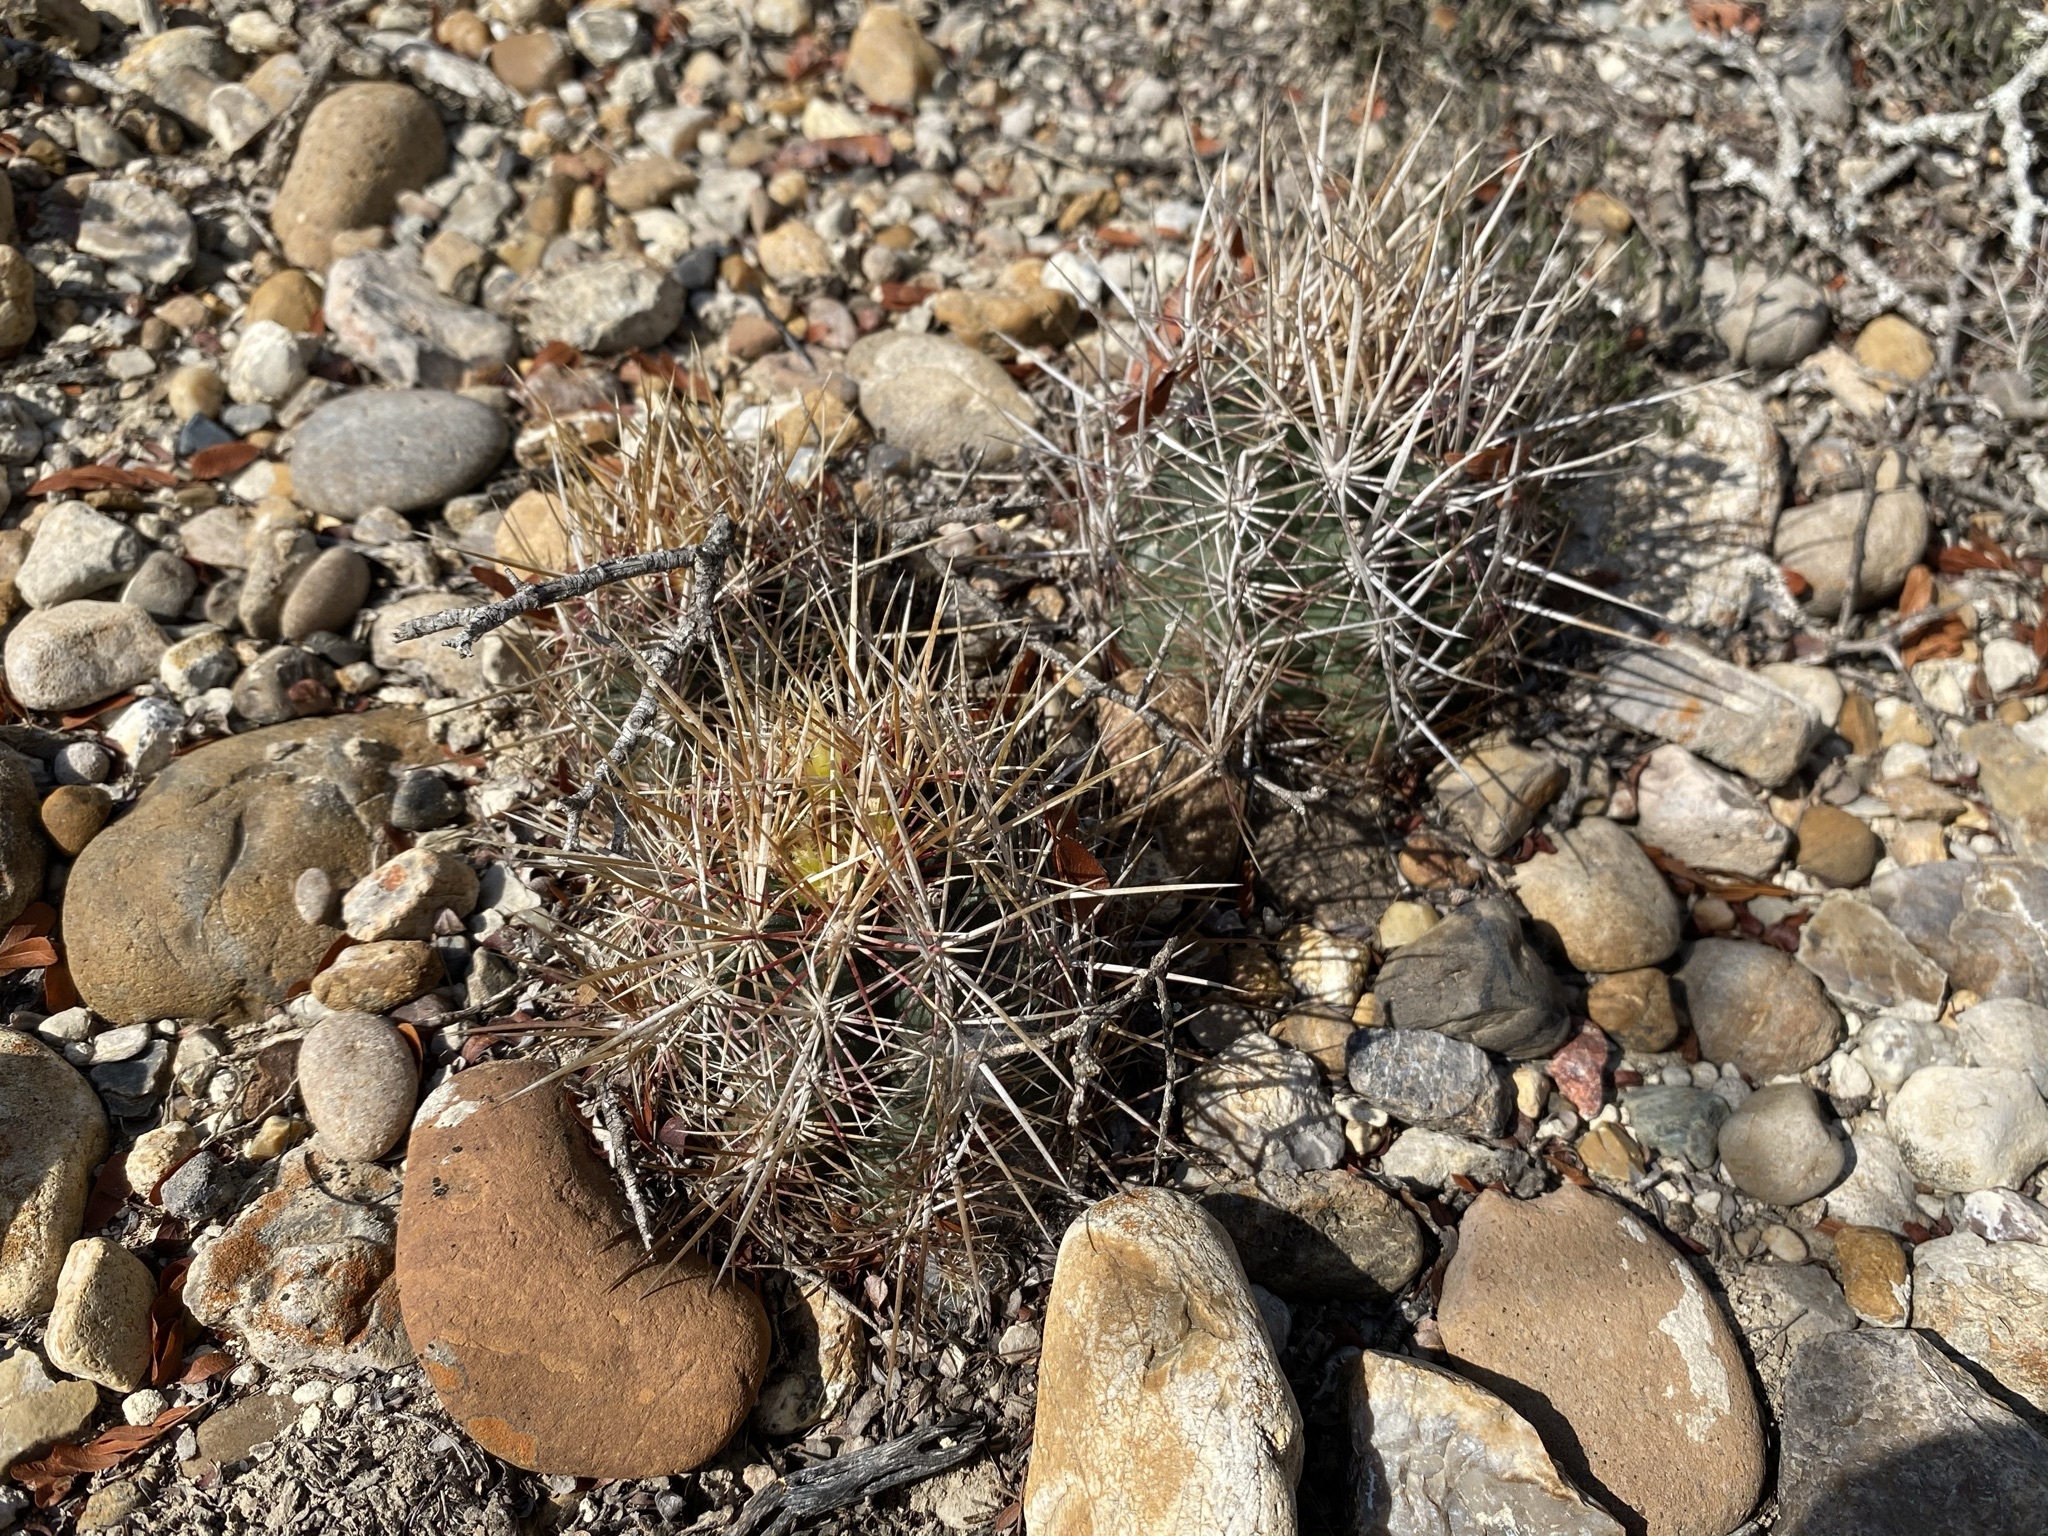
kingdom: Plantae
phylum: Tracheophyta
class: Magnoliopsida
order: Caryophyllales
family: Cactaceae
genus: Thelocactus
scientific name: Thelocactus bicolor
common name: Glory of texas
